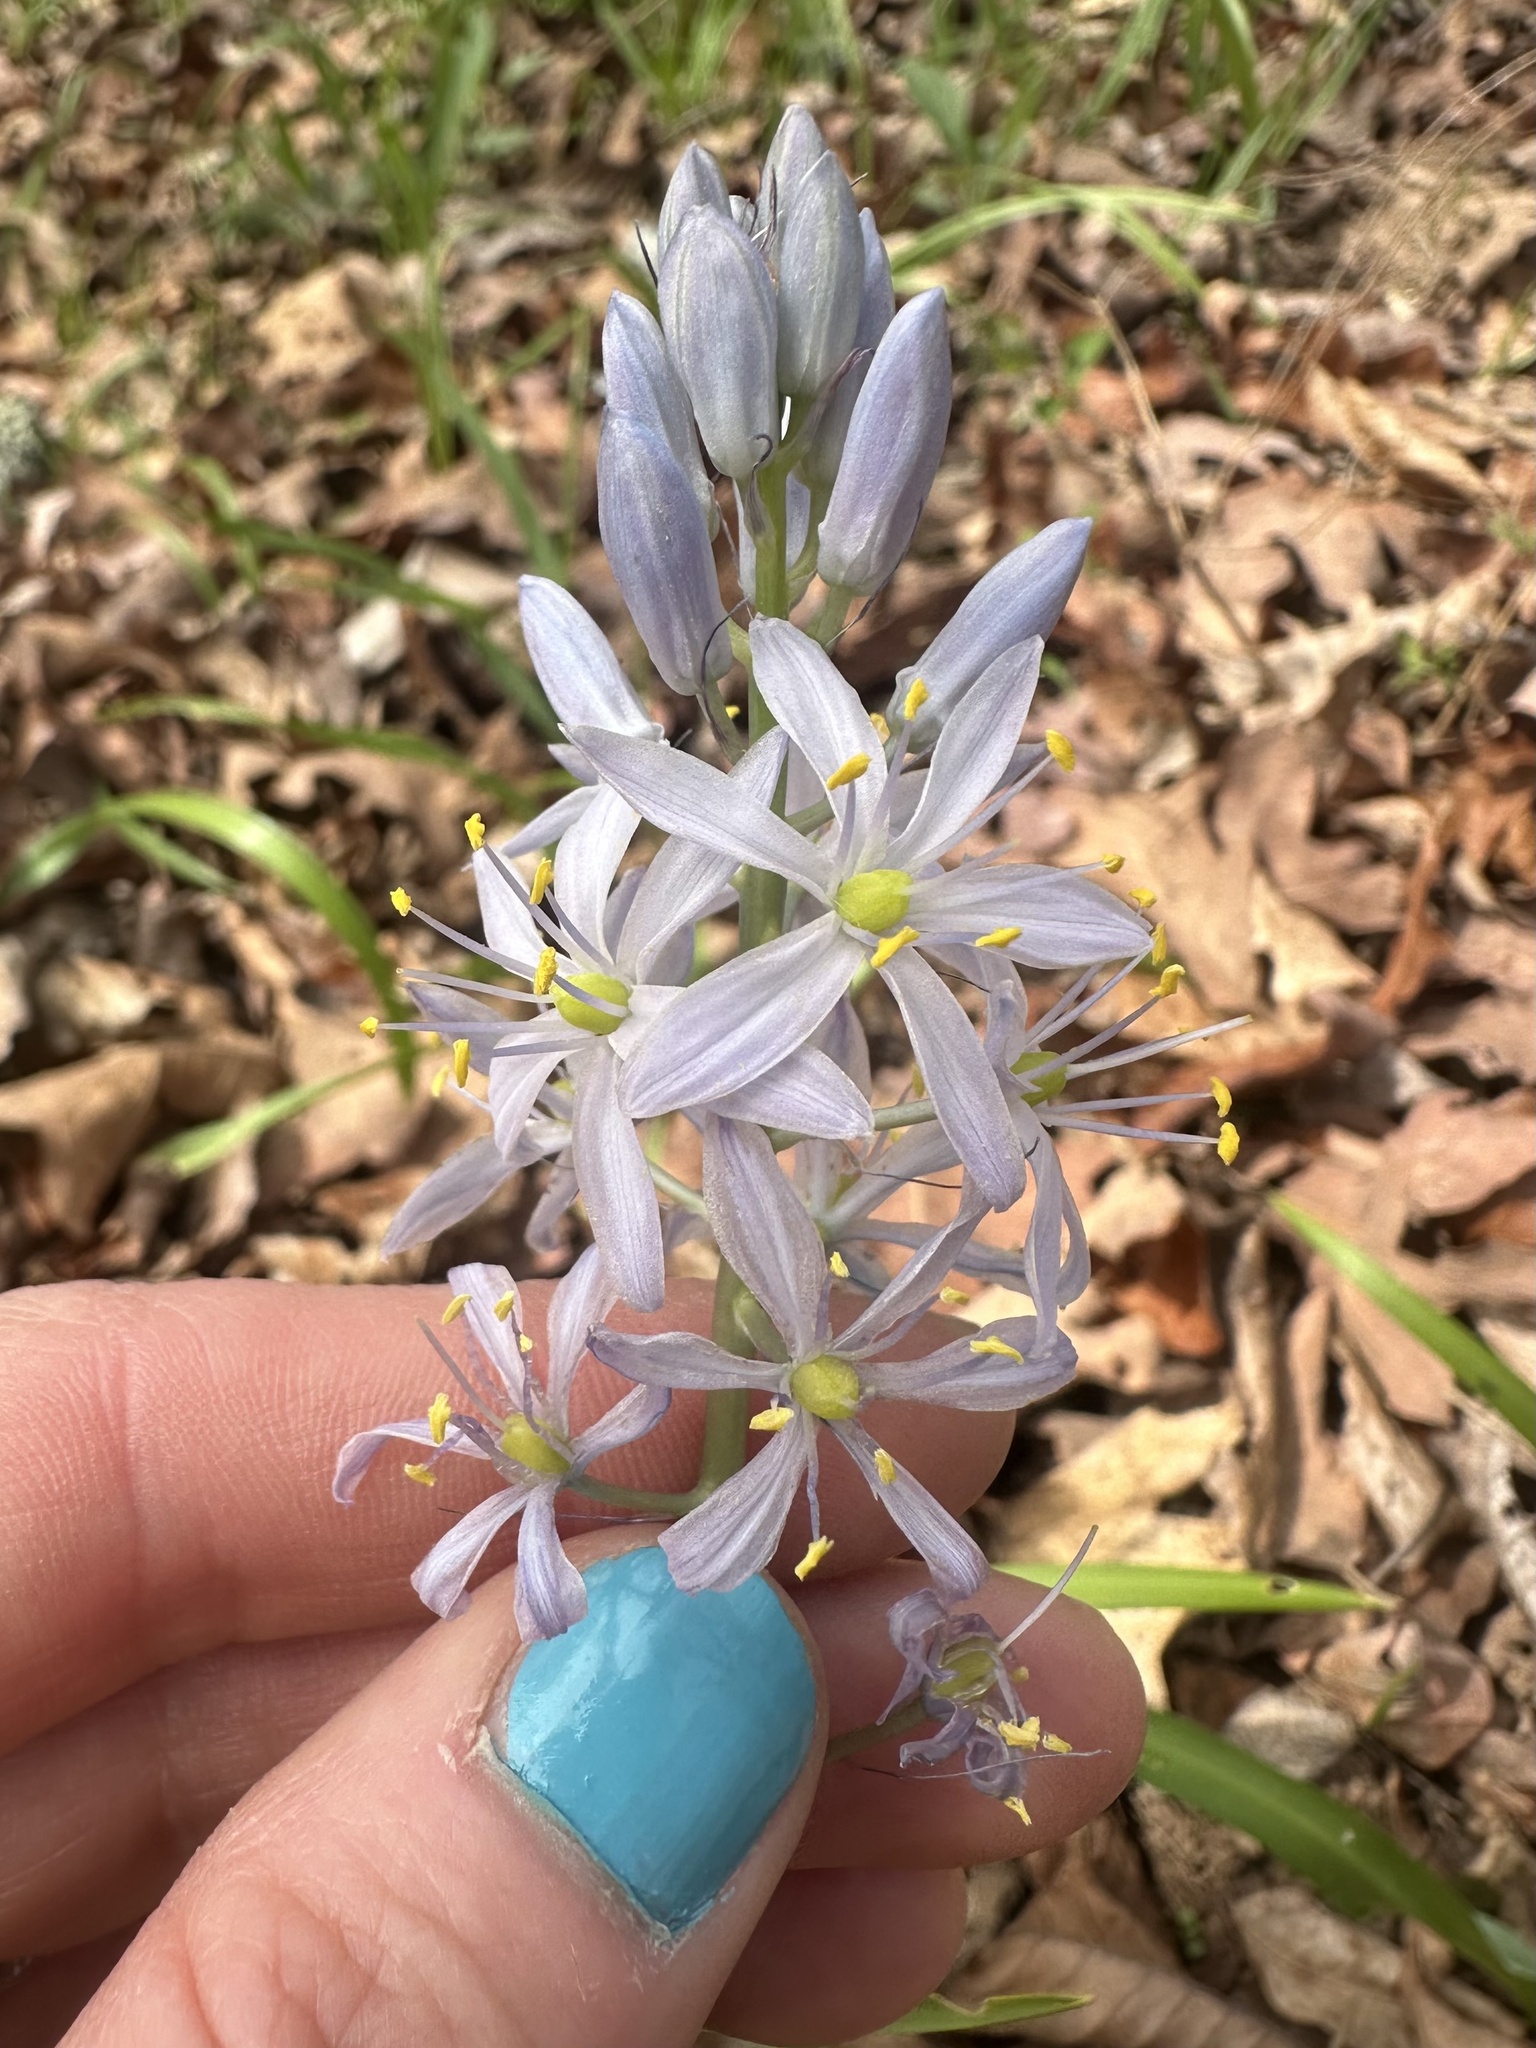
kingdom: Plantae
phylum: Tracheophyta
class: Liliopsida
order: Asparagales
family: Asparagaceae
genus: Camassia
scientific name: Camassia scilloides
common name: Wild hyacinth
